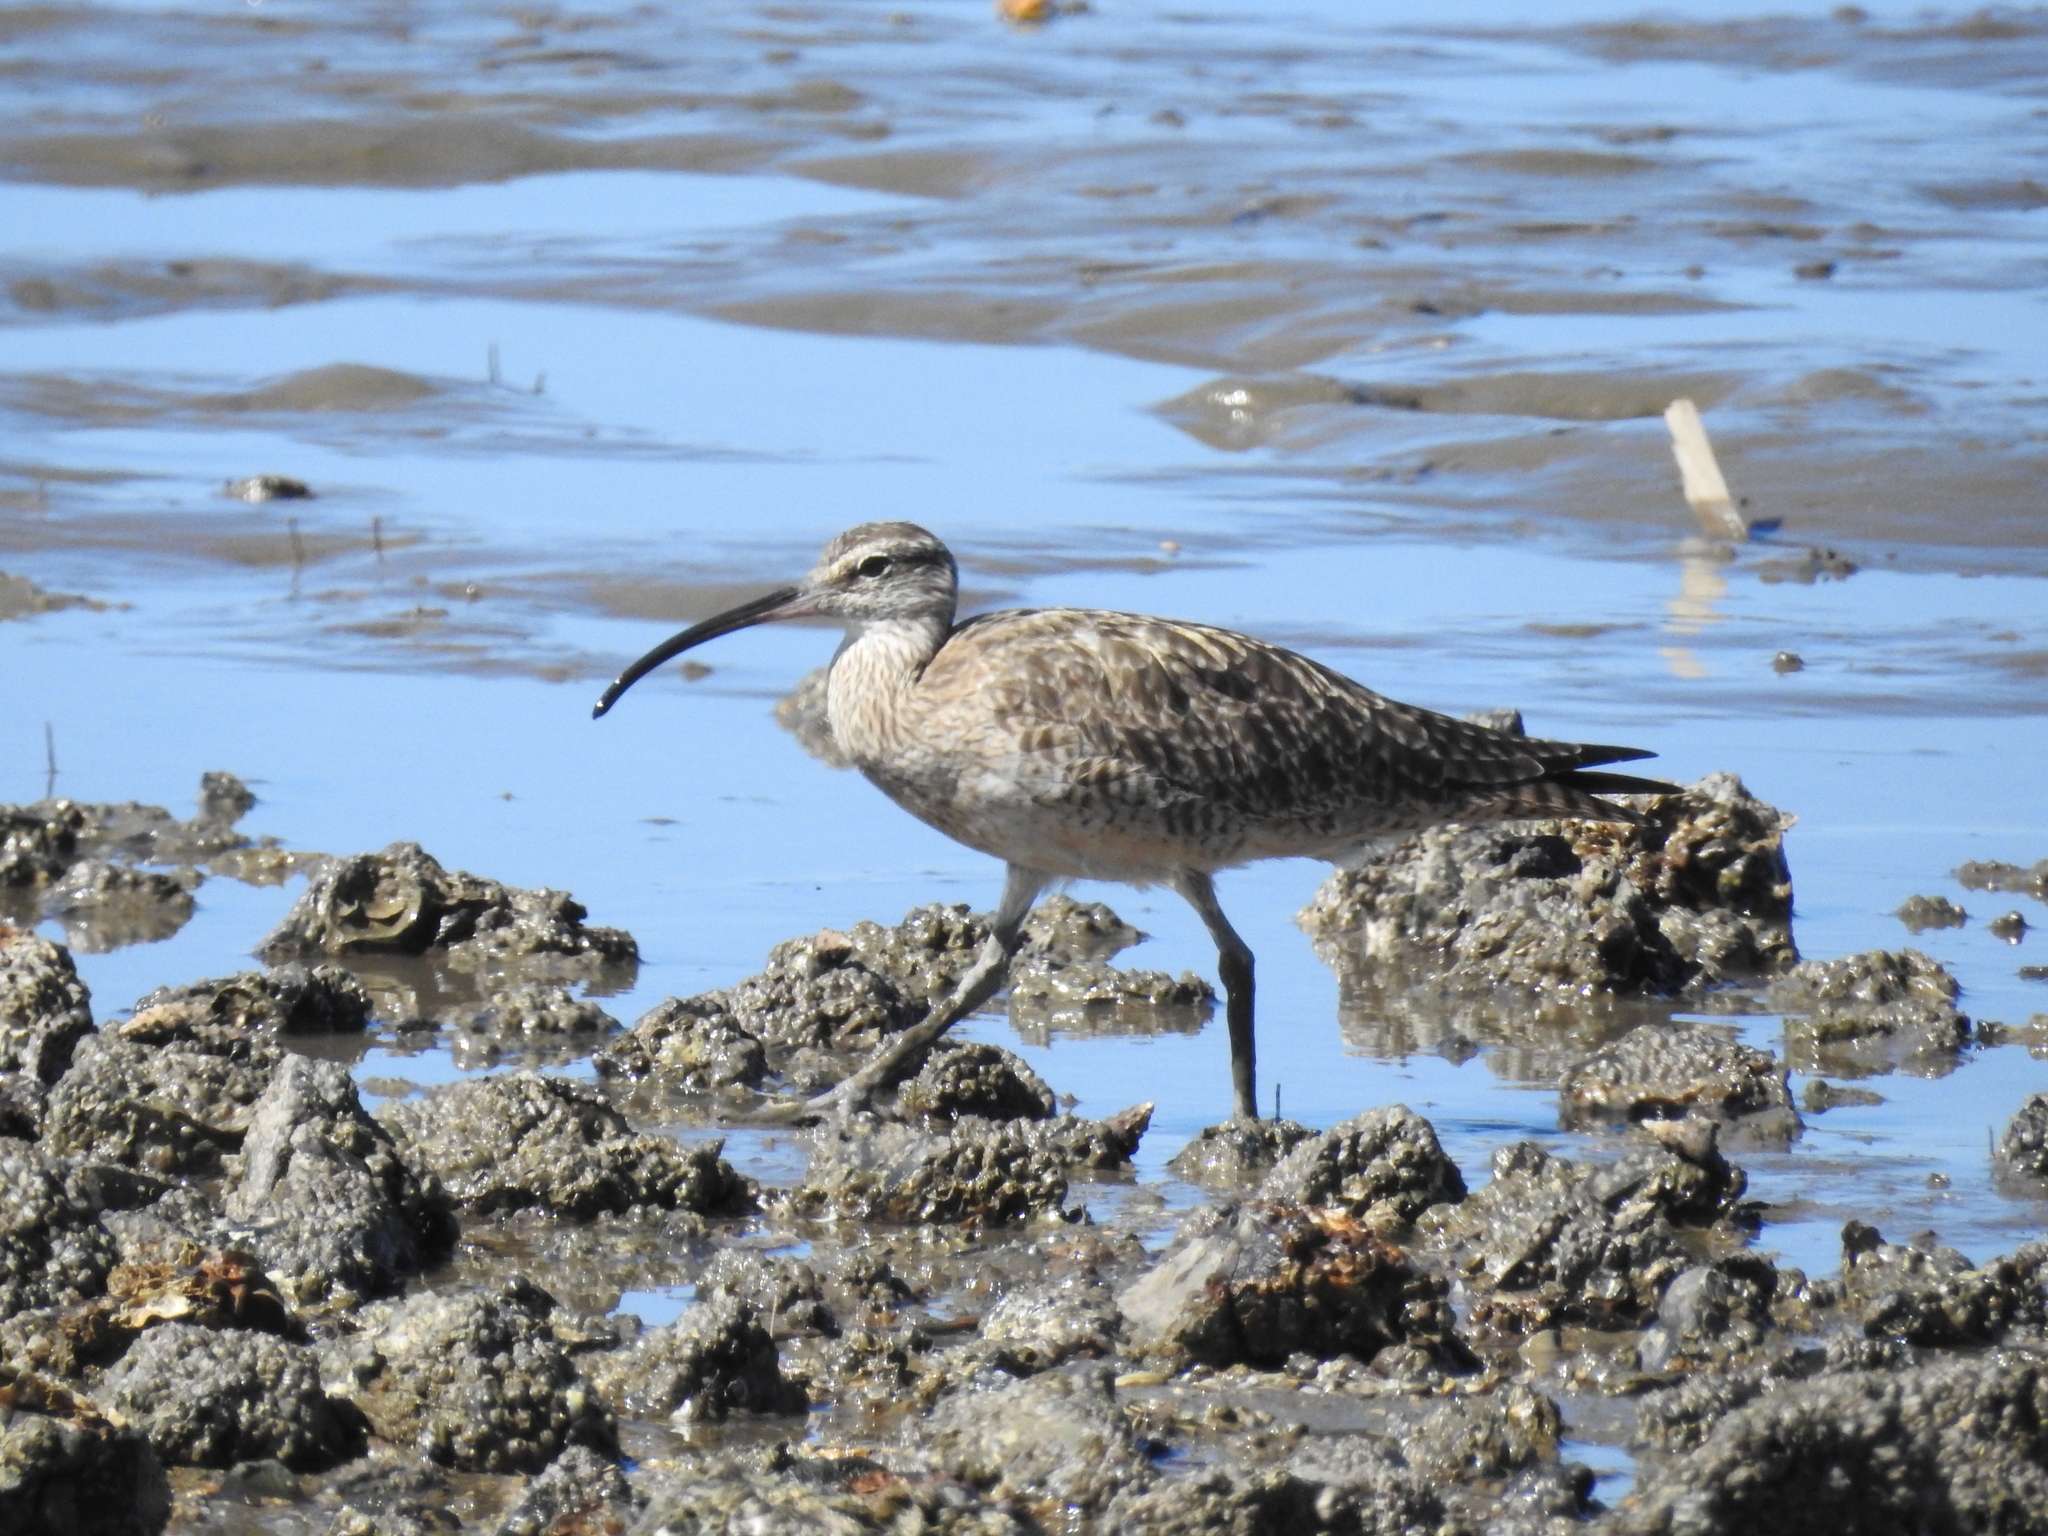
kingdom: Animalia
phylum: Chordata
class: Aves
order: Charadriiformes
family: Scolopacidae
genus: Numenius
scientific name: Numenius phaeopus
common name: Whimbrel
